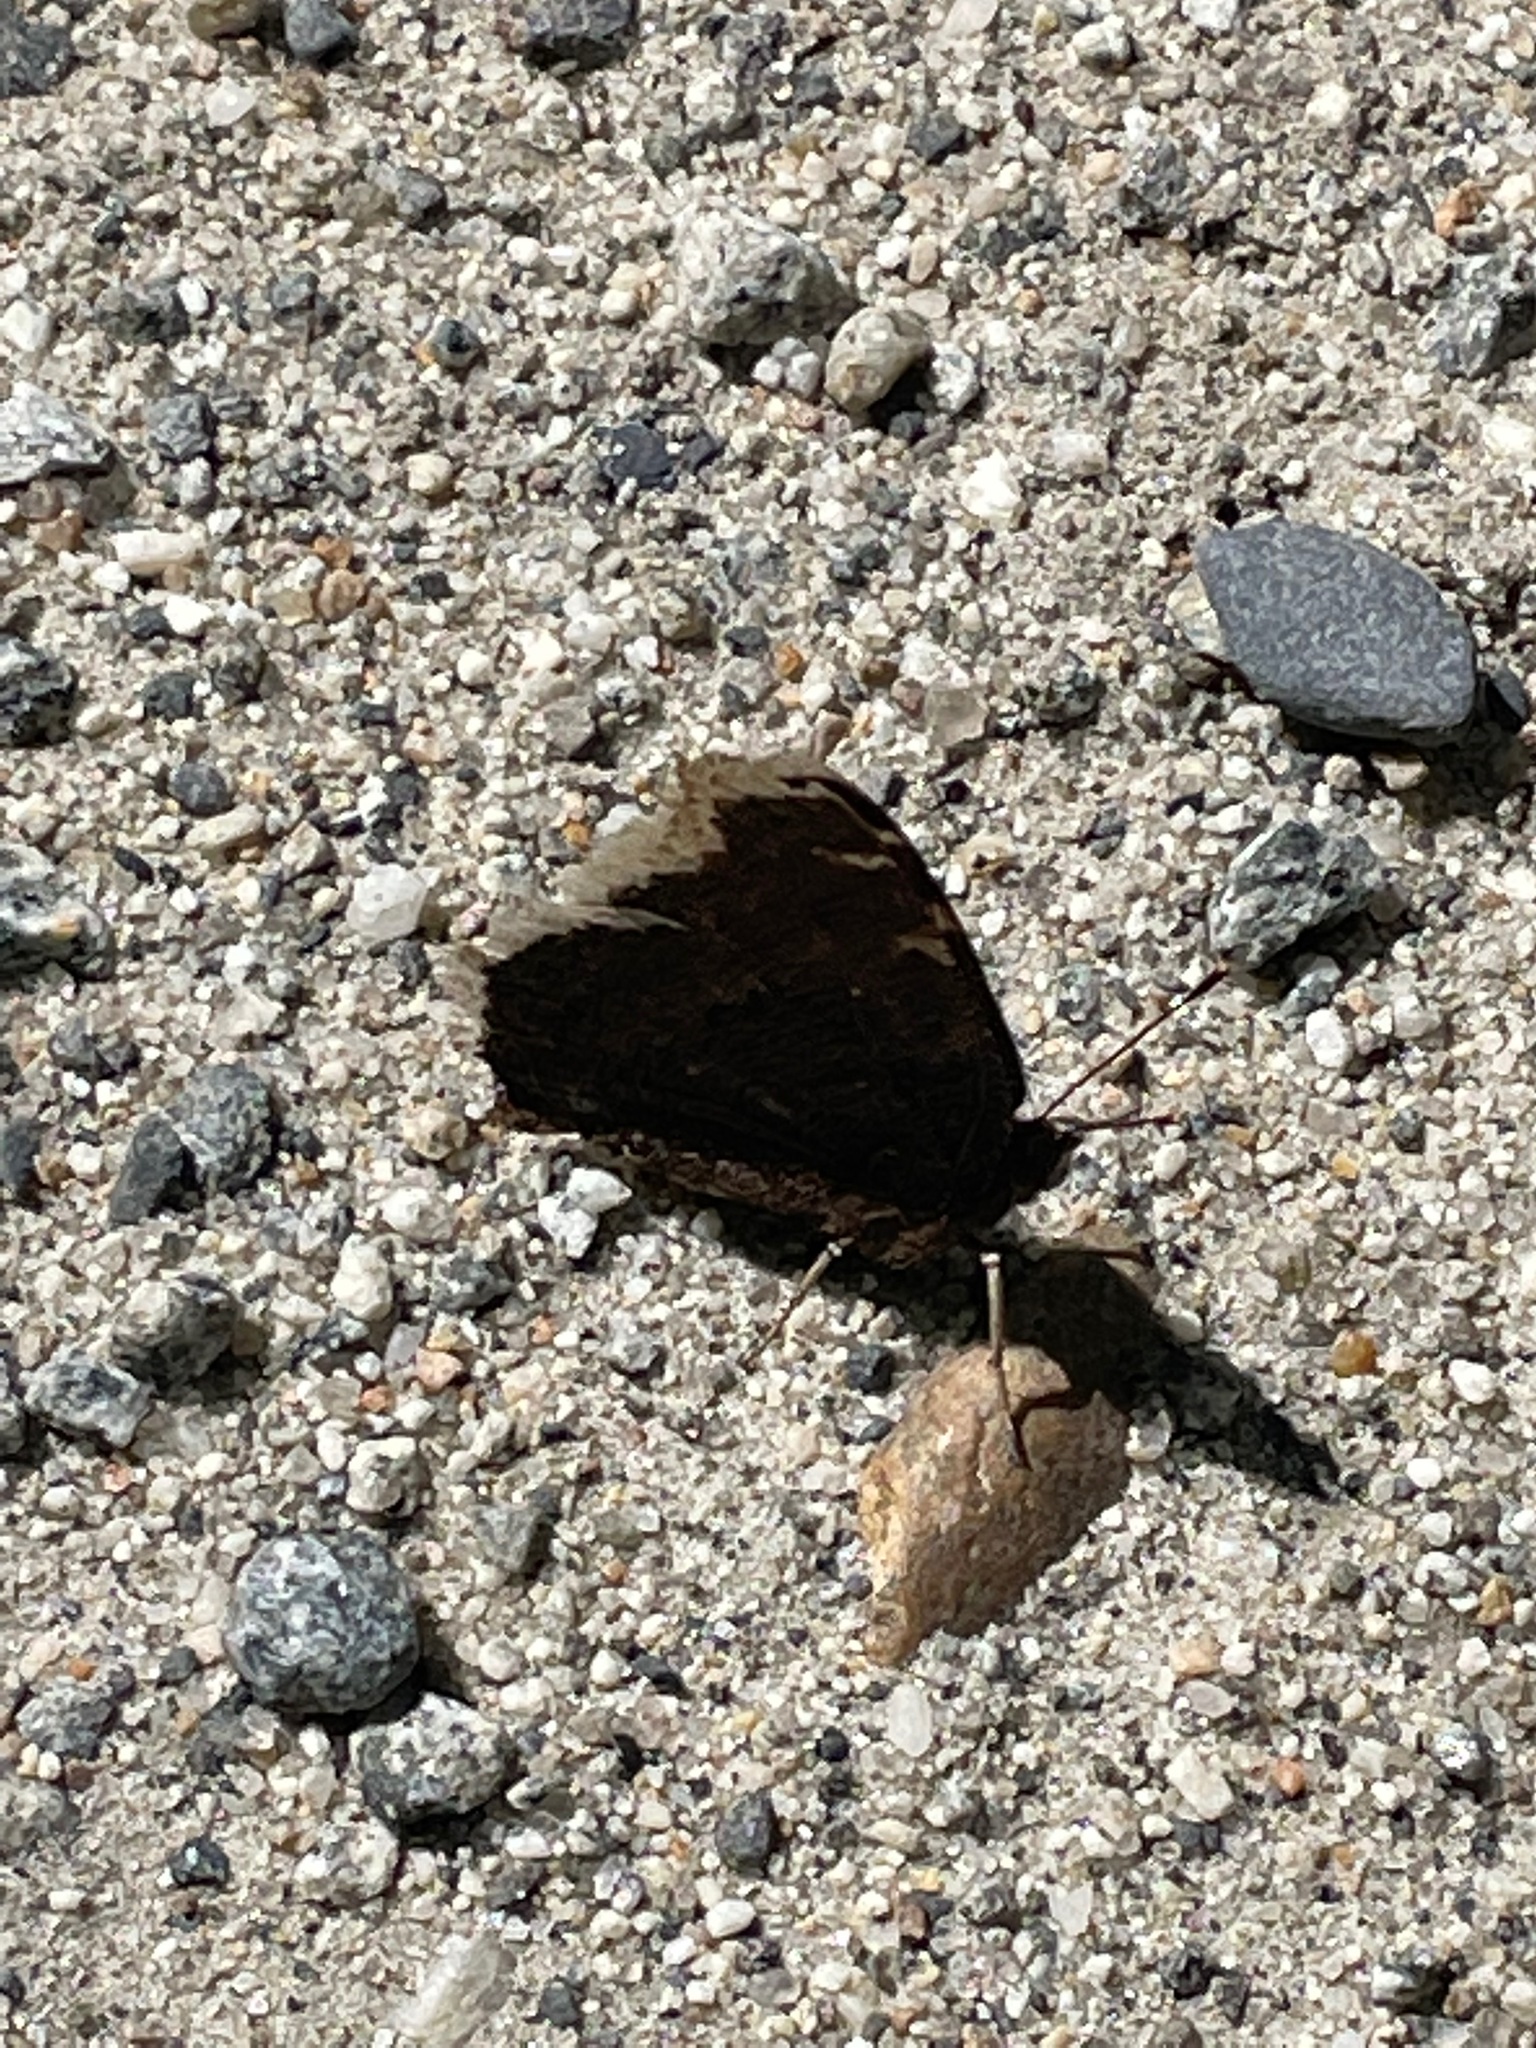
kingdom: Animalia
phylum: Arthropoda
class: Insecta
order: Lepidoptera
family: Nymphalidae
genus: Nymphalis
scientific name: Nymphalis antiopa
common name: Camberwell beauty
